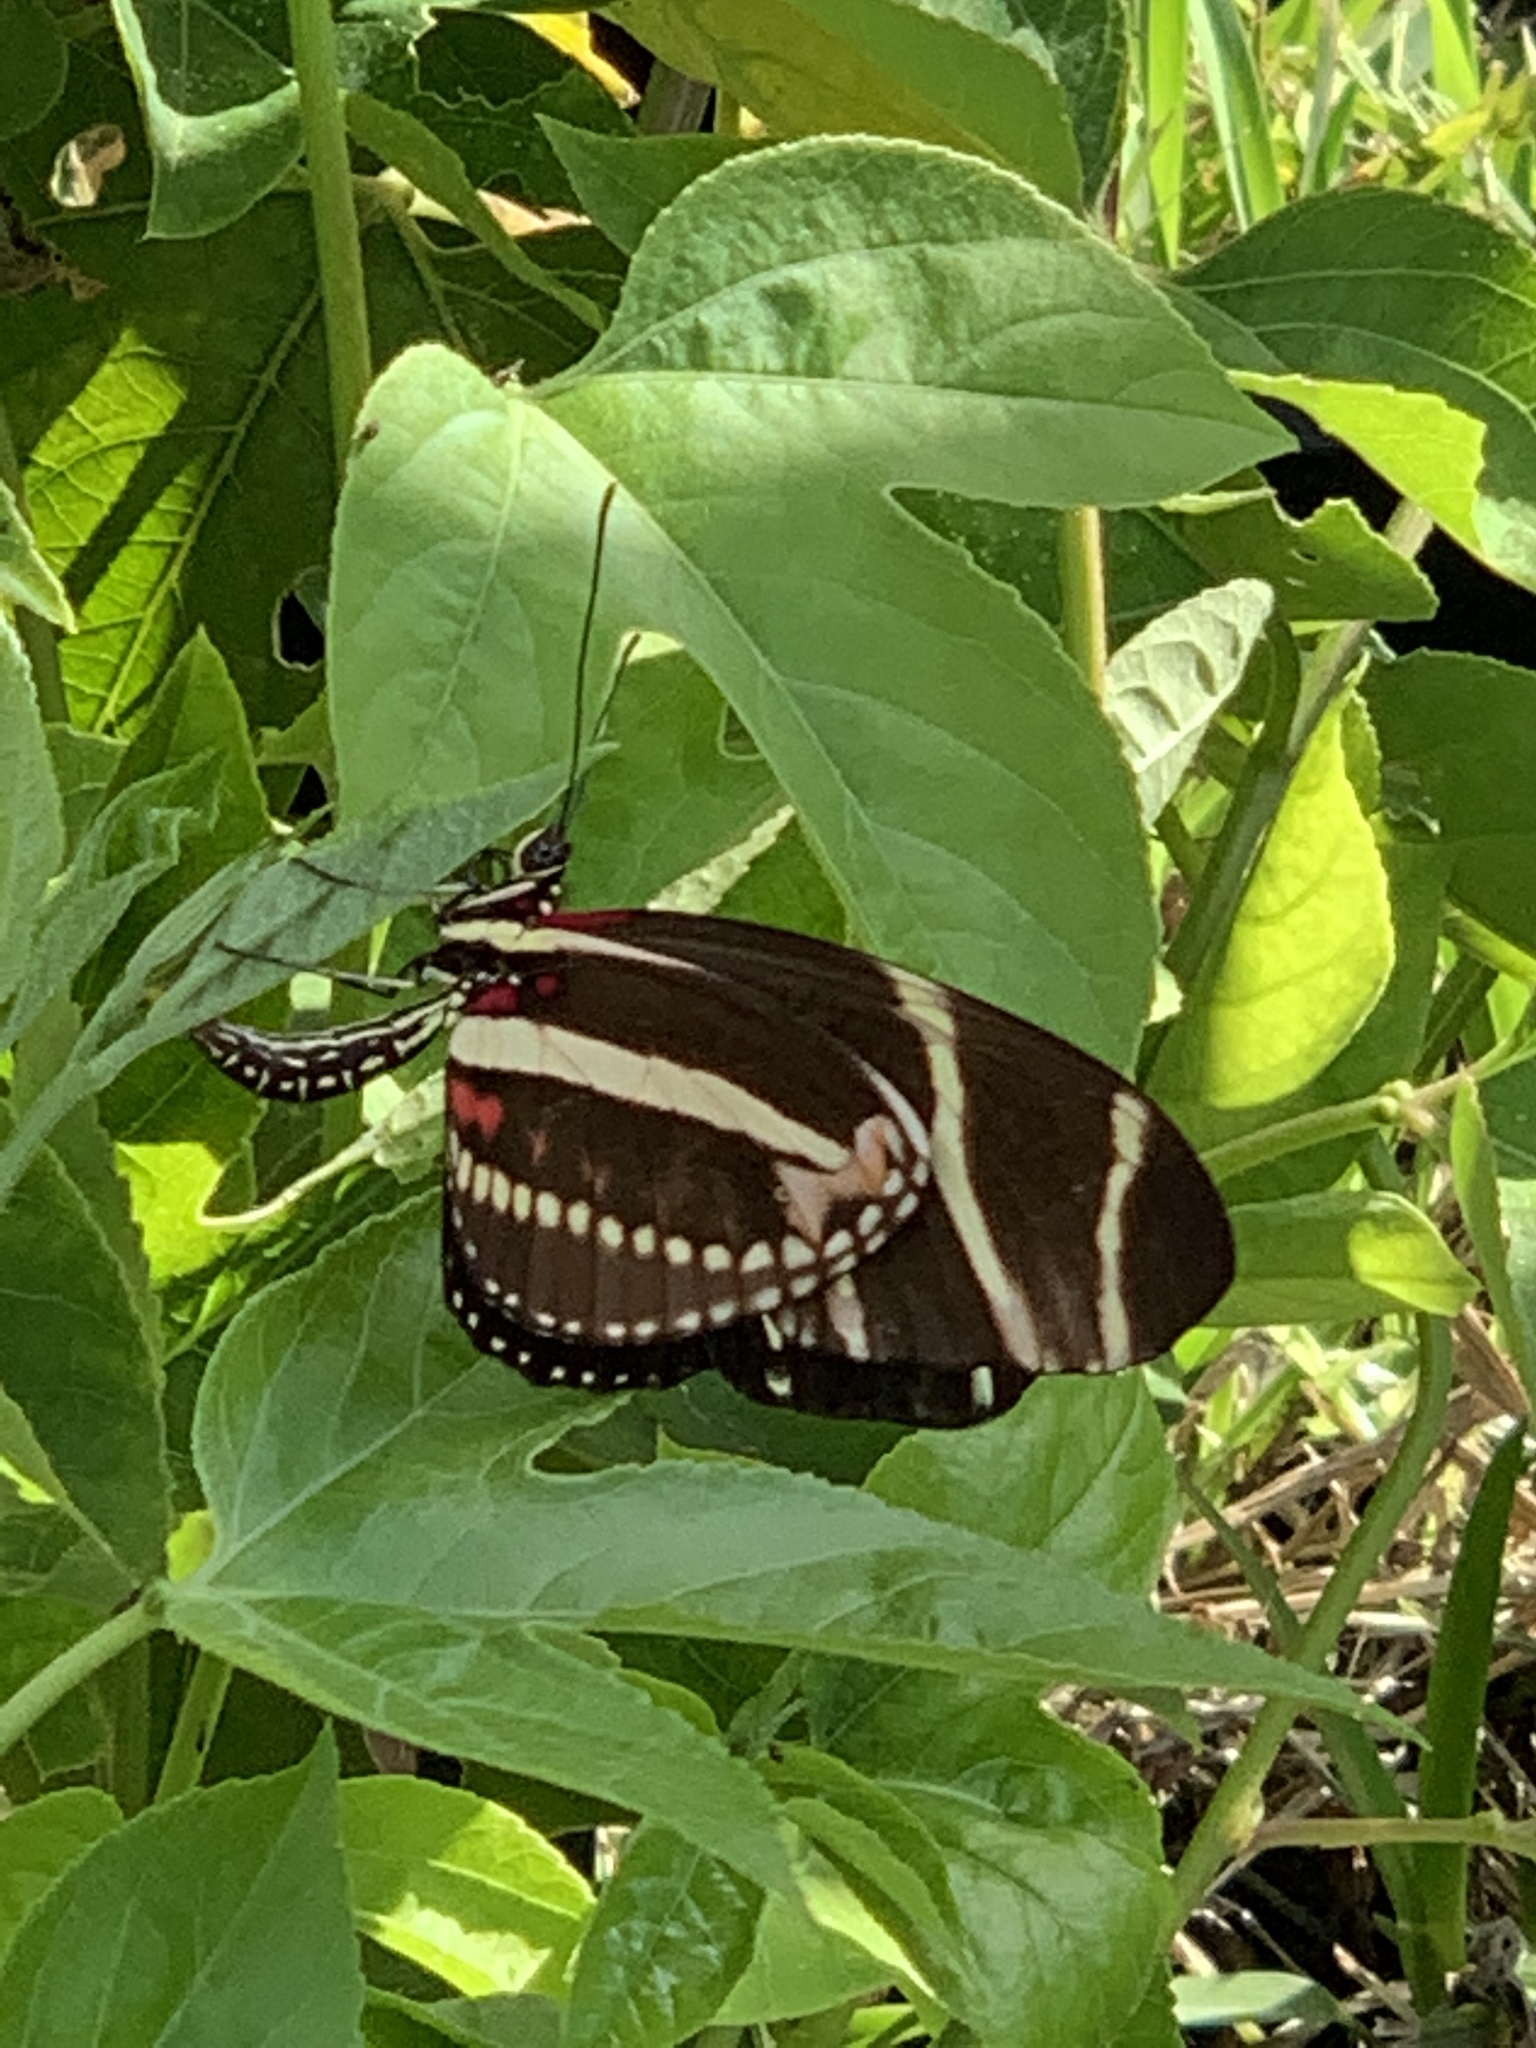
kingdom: Animalia
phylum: Arthropoda
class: Insecta
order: Lepidoptera
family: Nymphalidae
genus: Heliconius
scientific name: Heliconius charithonia
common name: Zebra long wing
